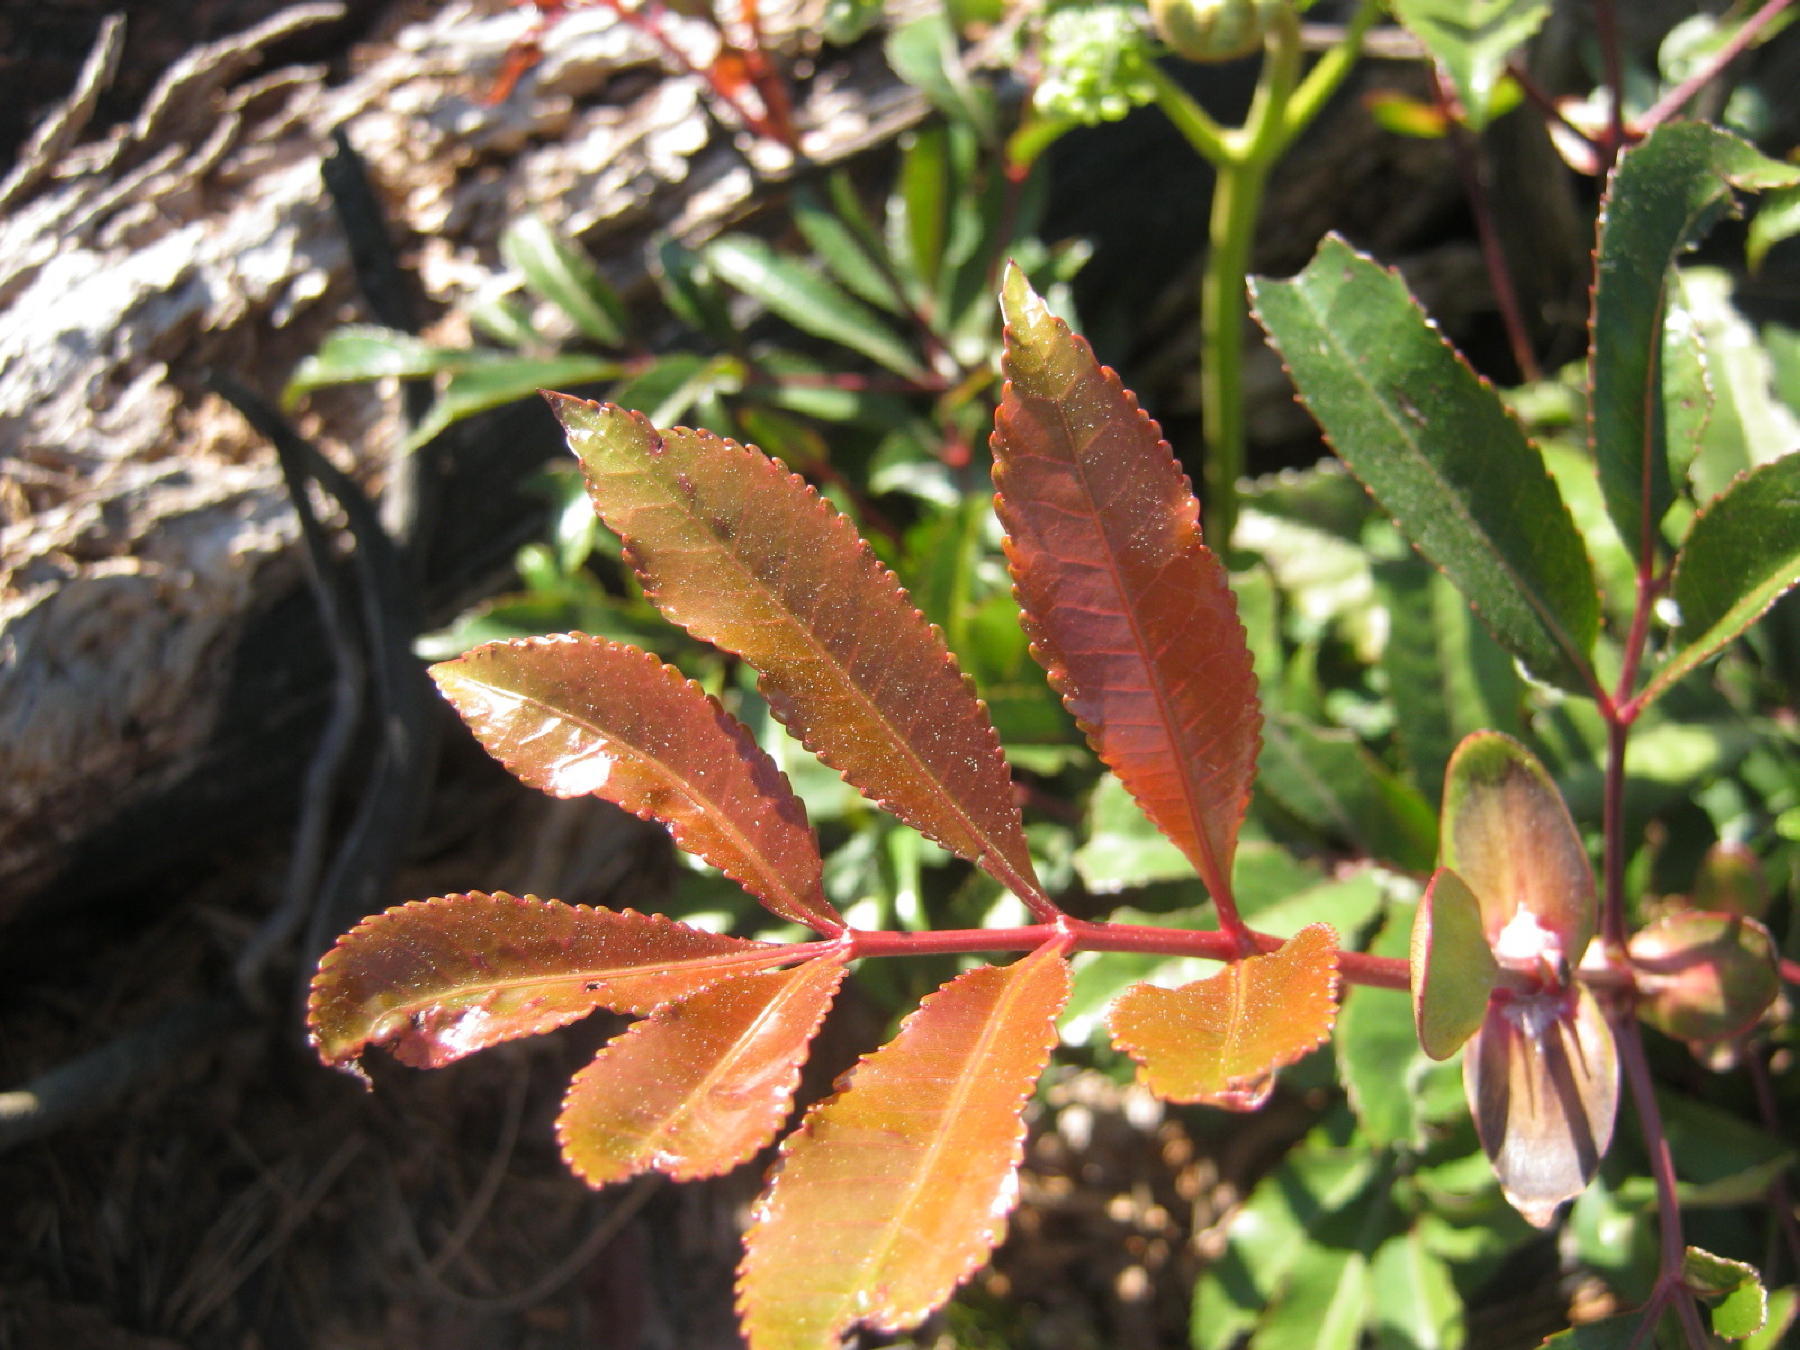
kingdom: Plantae
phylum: Tracheophyta
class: Magnoliopsida
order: Oxalidales
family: Cunoniaceae
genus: Cunonia
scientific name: Cunonia capensis
